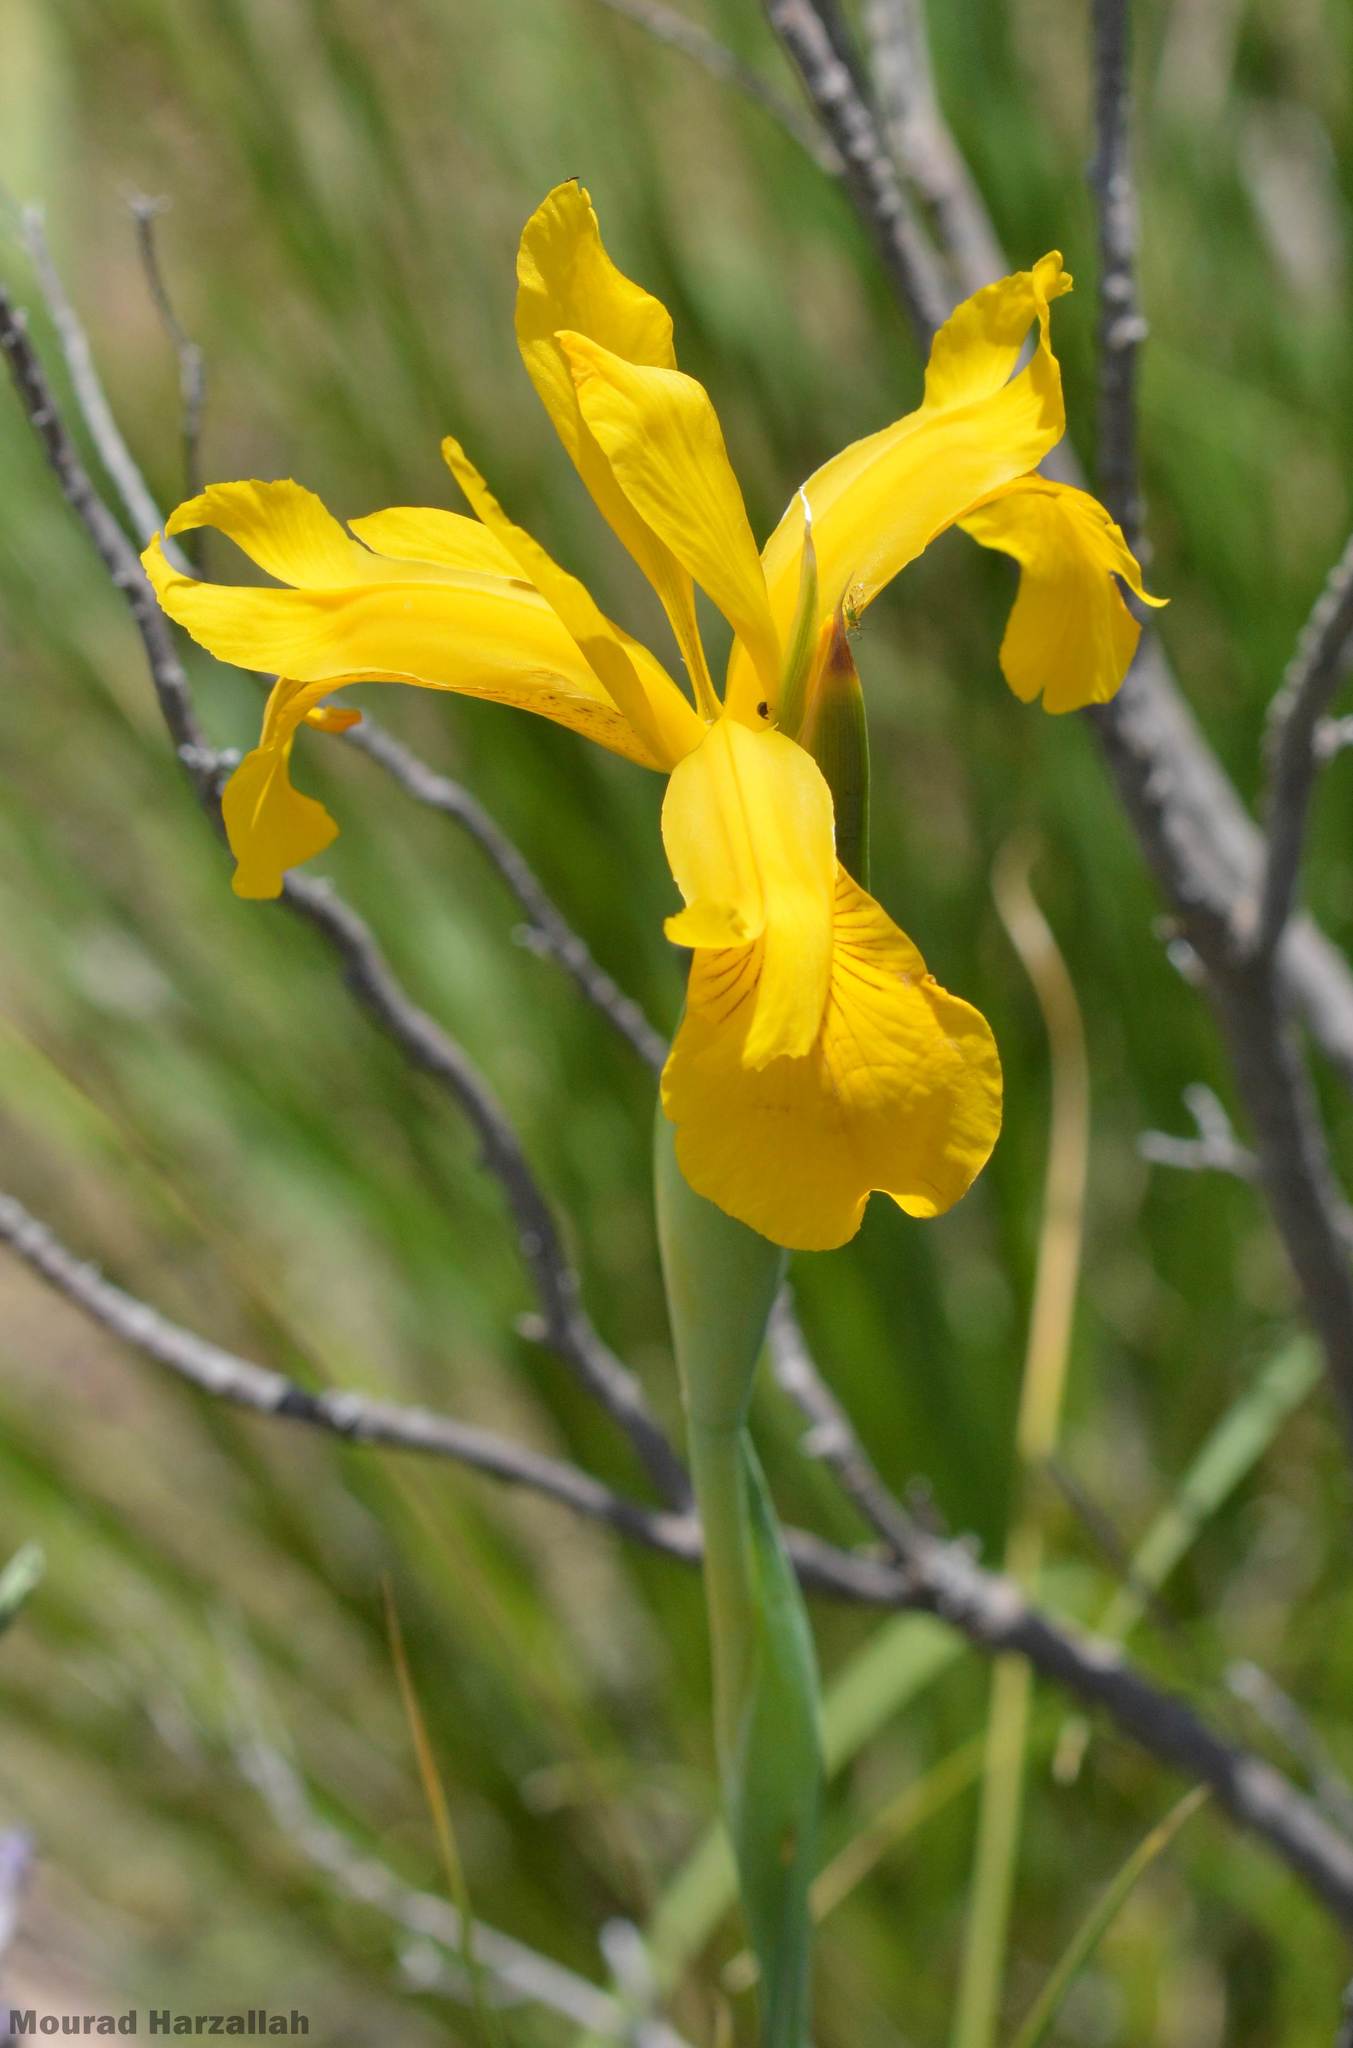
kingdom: Plantae
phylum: Tracheophyta
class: Liliopsida
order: Asparagales
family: Iridaceae
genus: Iris
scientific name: Iris juncea
